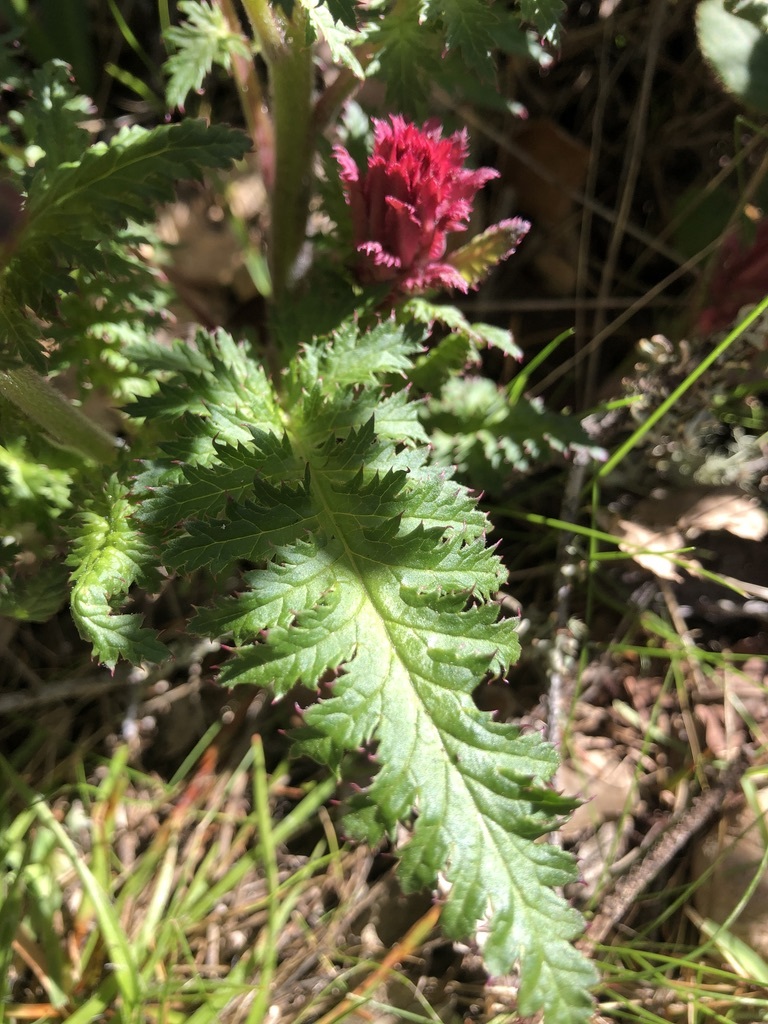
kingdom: Plantae
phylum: Tracheophyta
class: Magnoliopsida
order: Lamiales
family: Orobanchaceae
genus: Pedicularis
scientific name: Pedicularis densiflora
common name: Indian warrior
